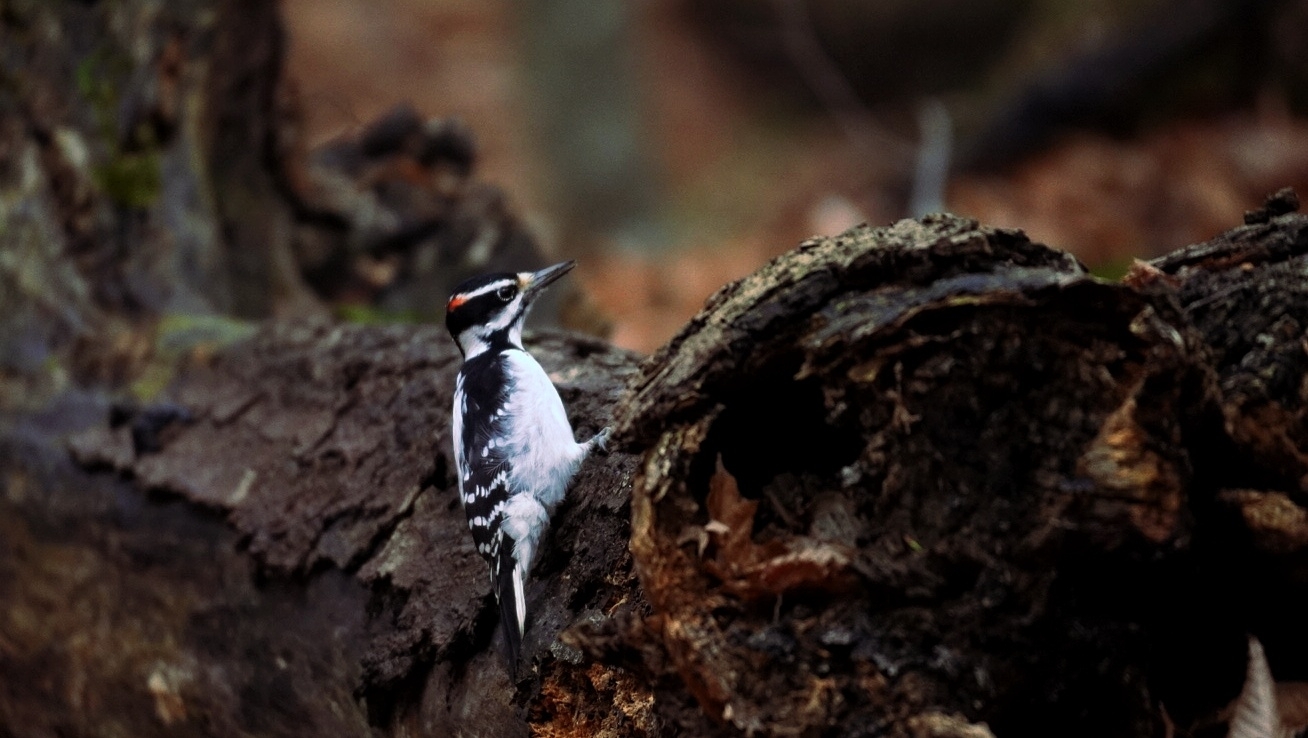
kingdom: Animalia
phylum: Chordata
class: Aves
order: Piciformes
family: Picidae
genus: Leuconotopicus
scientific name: Leuconotopicus villosus
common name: Hairy woodpecker
